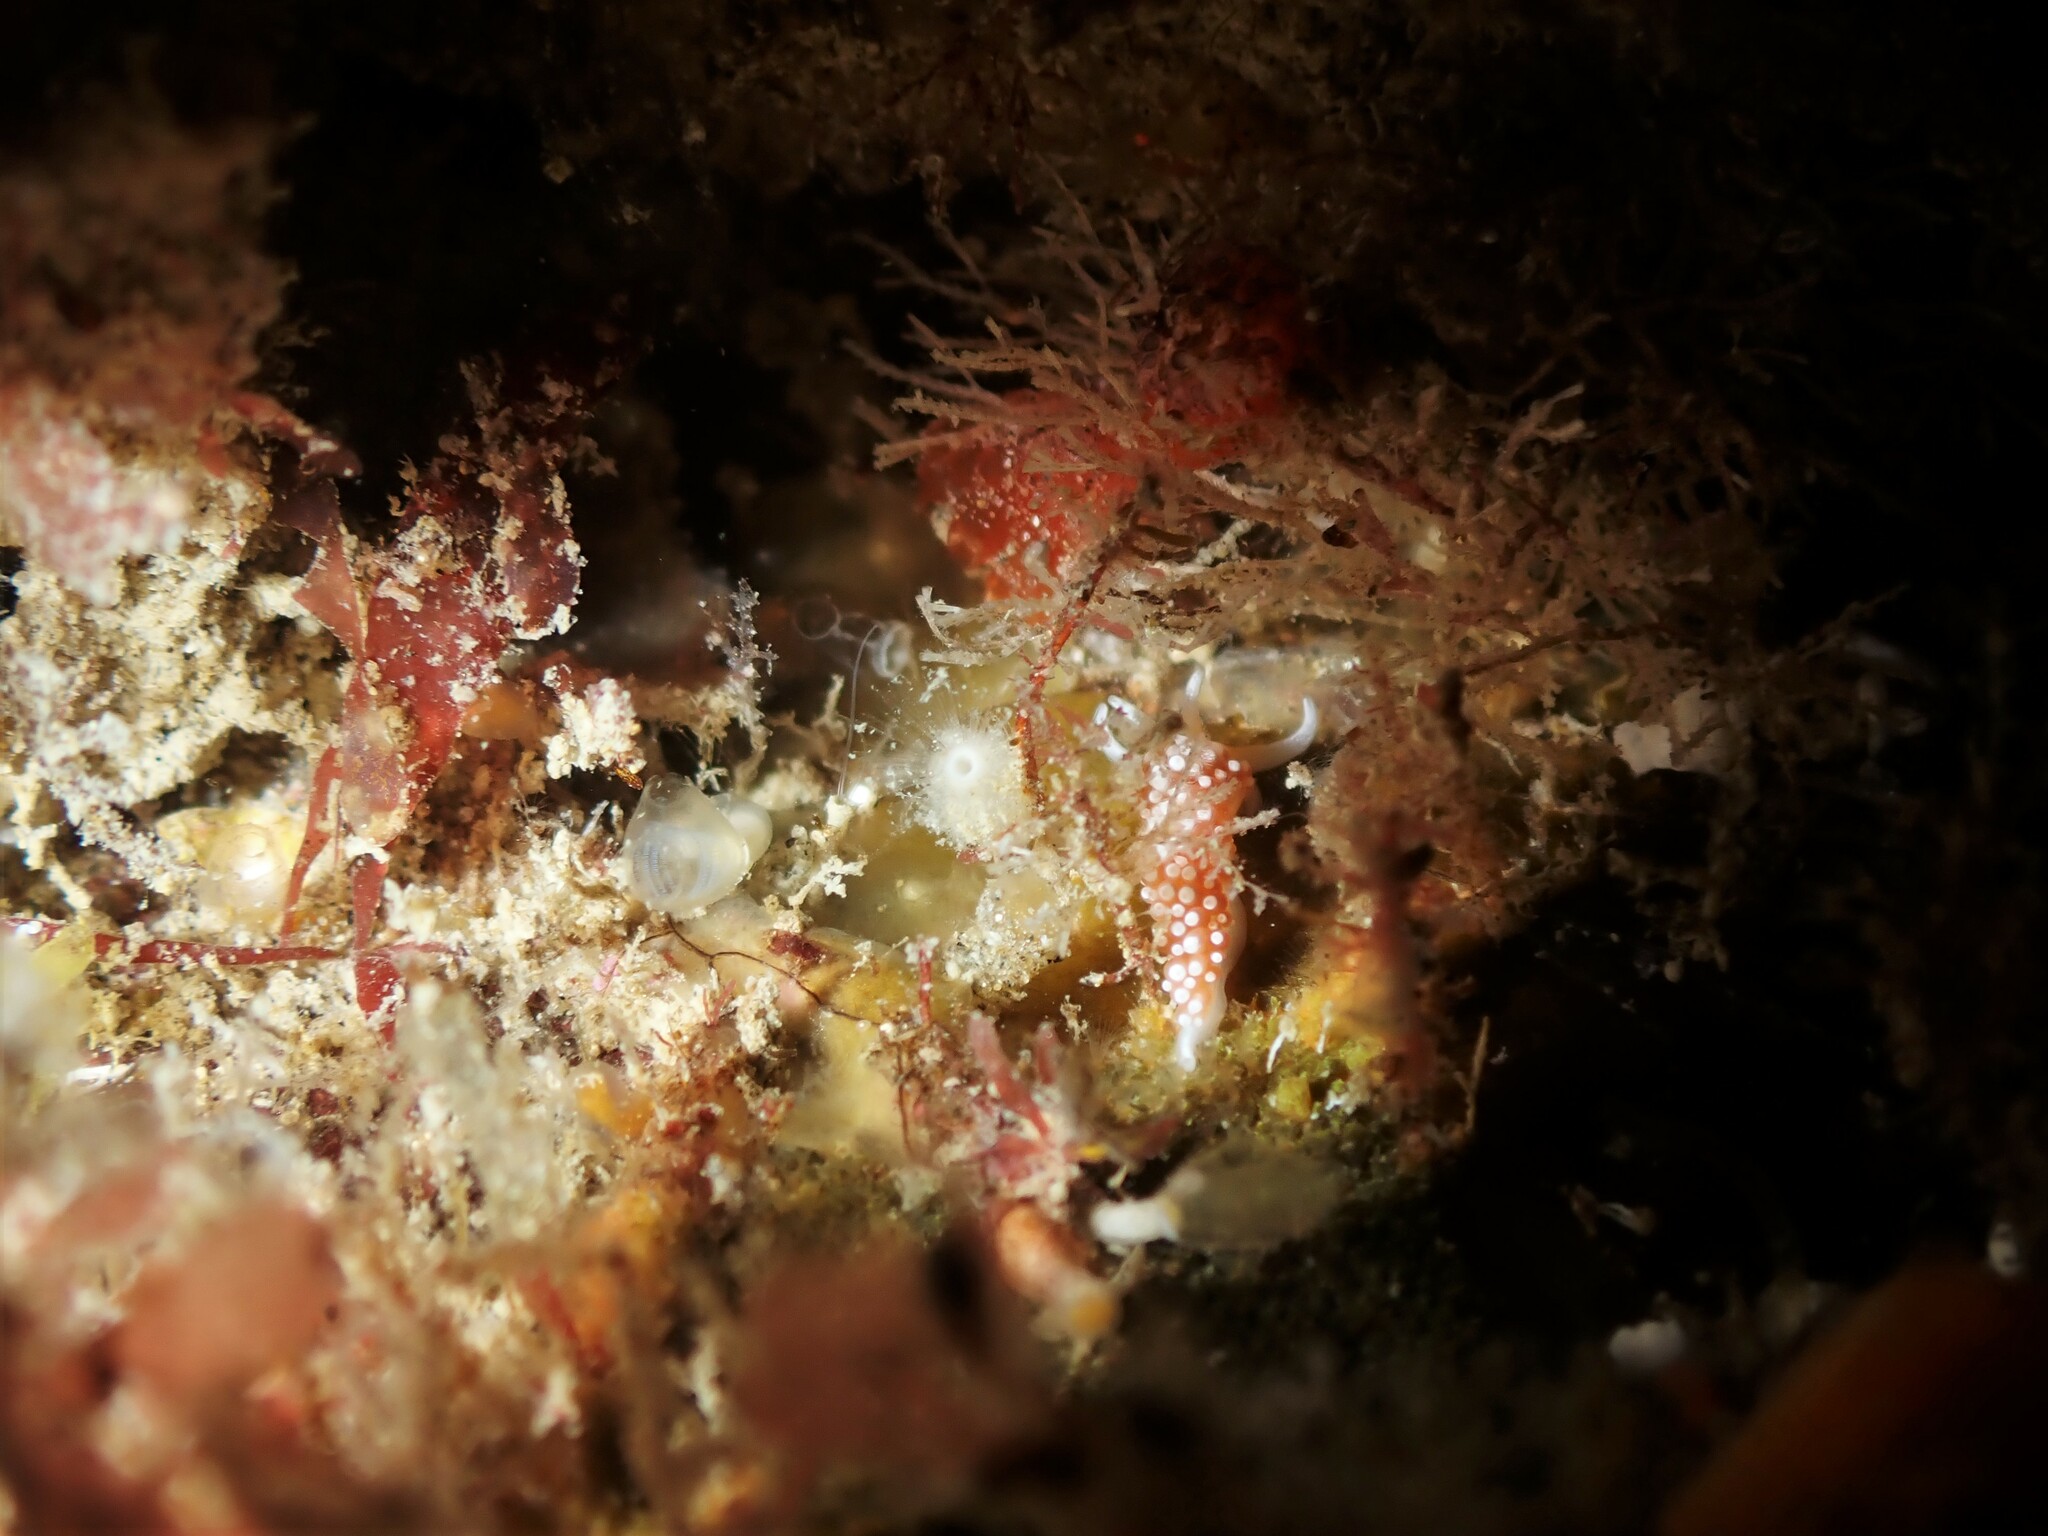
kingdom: Animalia
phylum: Mollusca
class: Gastropoda
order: Nudibranchia
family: Facelinidae
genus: Phidiana
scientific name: Phidiana milleri
